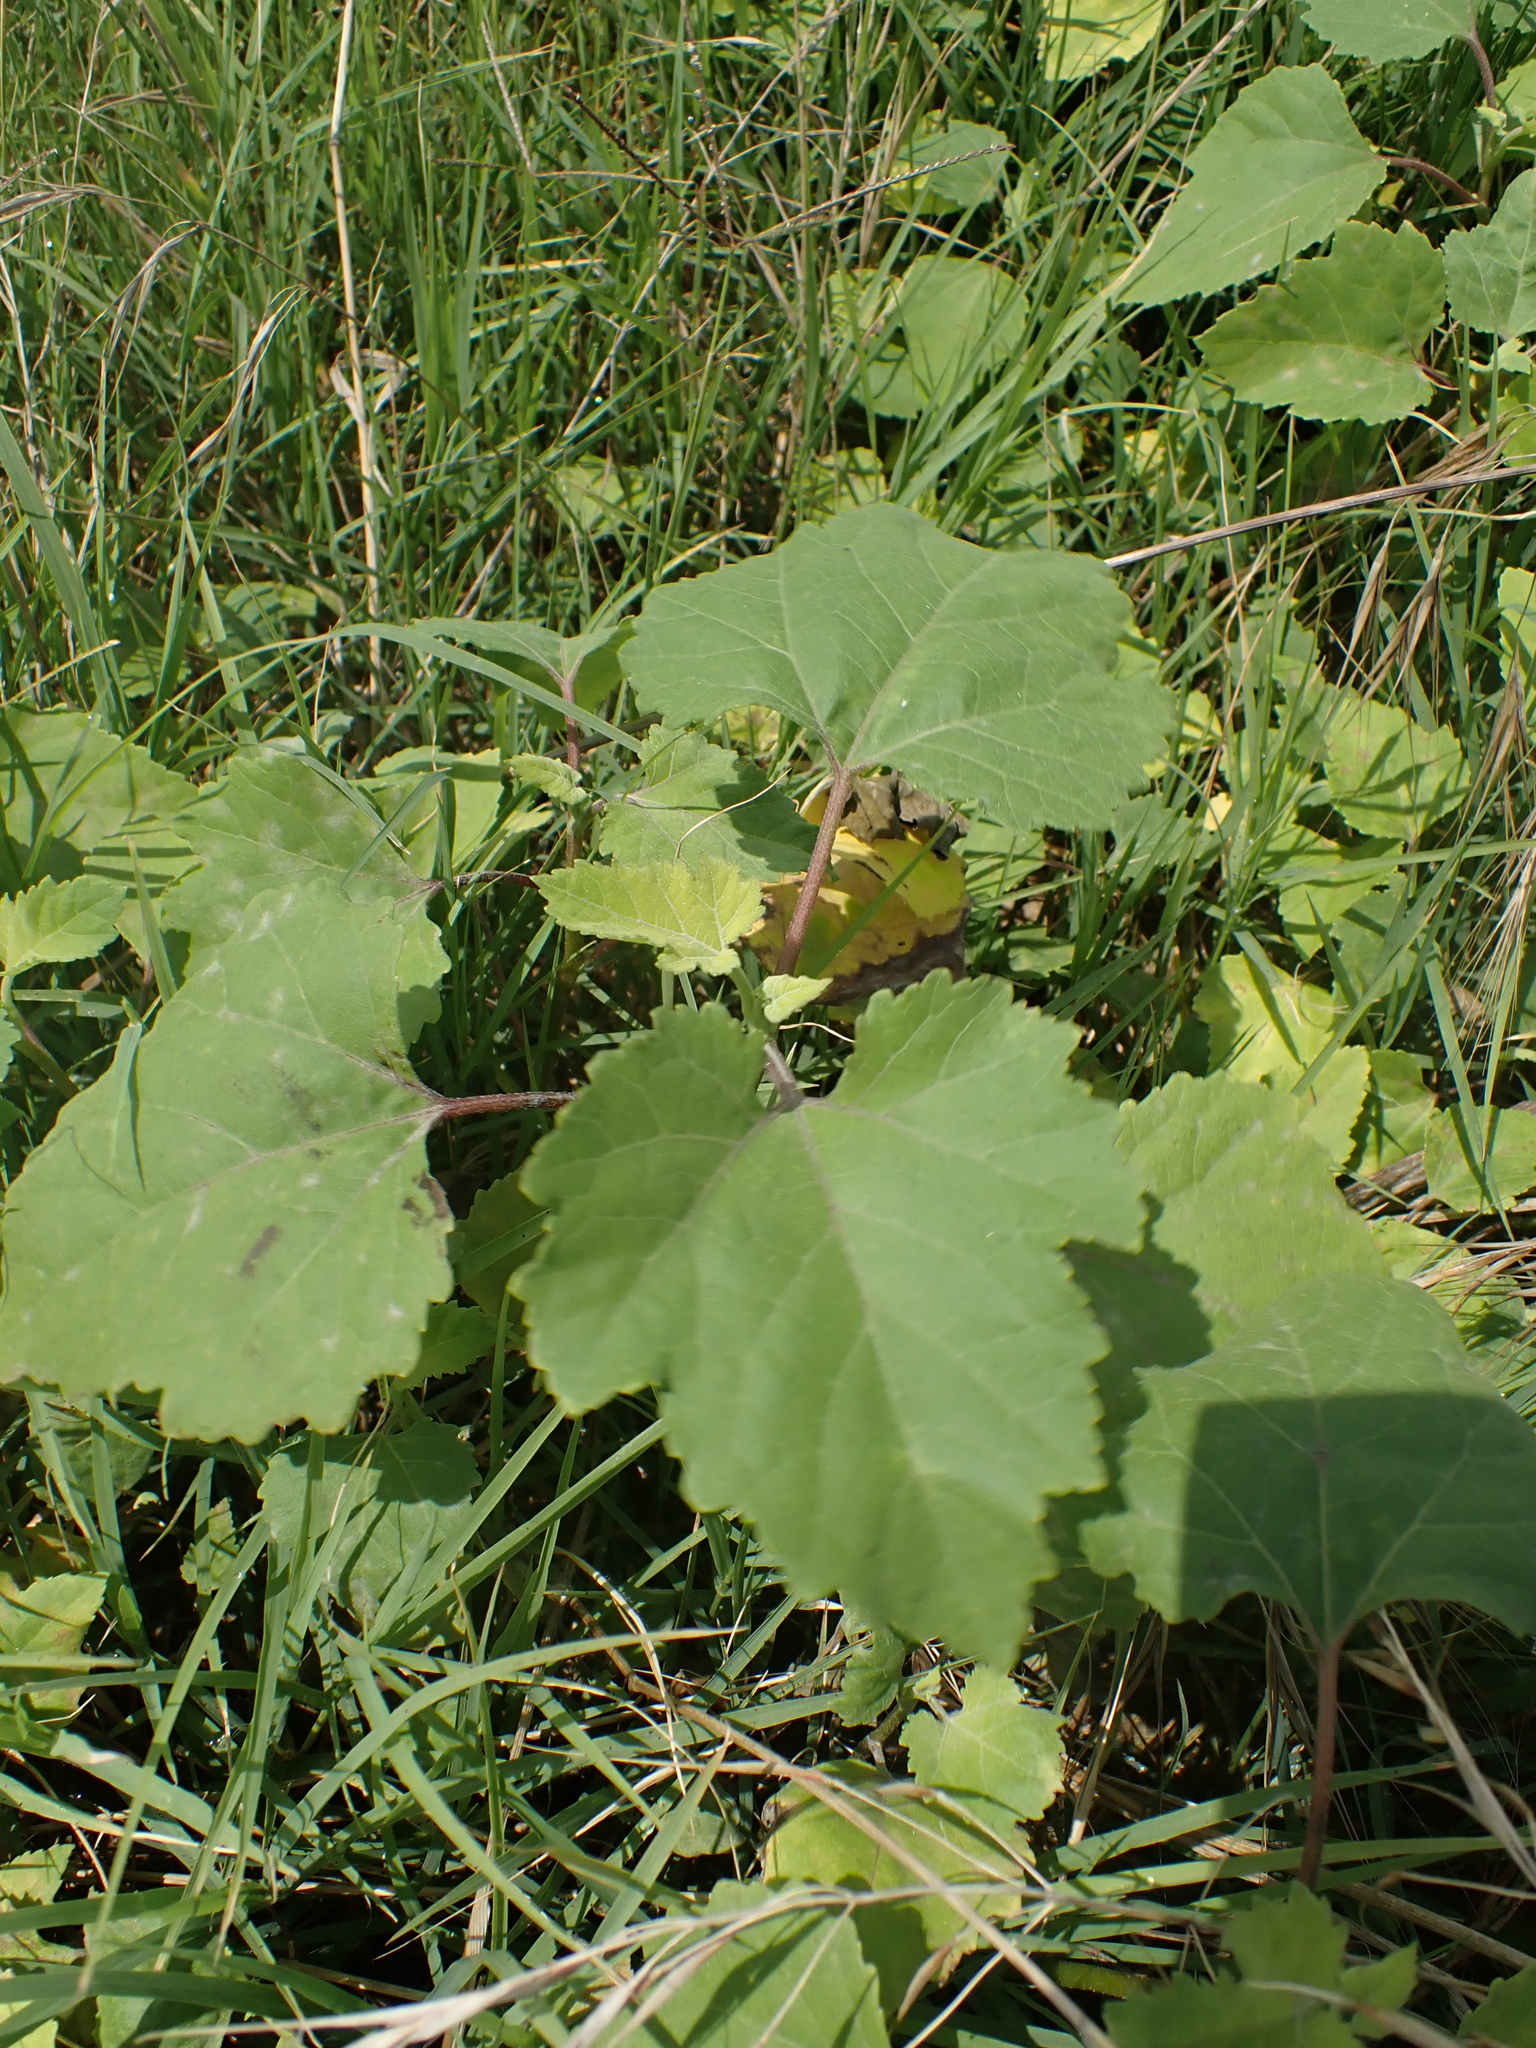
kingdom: Plantae
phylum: Tracheophyta
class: Magnoliopsida
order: Asterales
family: Asteraceae
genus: Xanthium
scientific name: Xanthium strumarium
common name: Rough cocklebur
